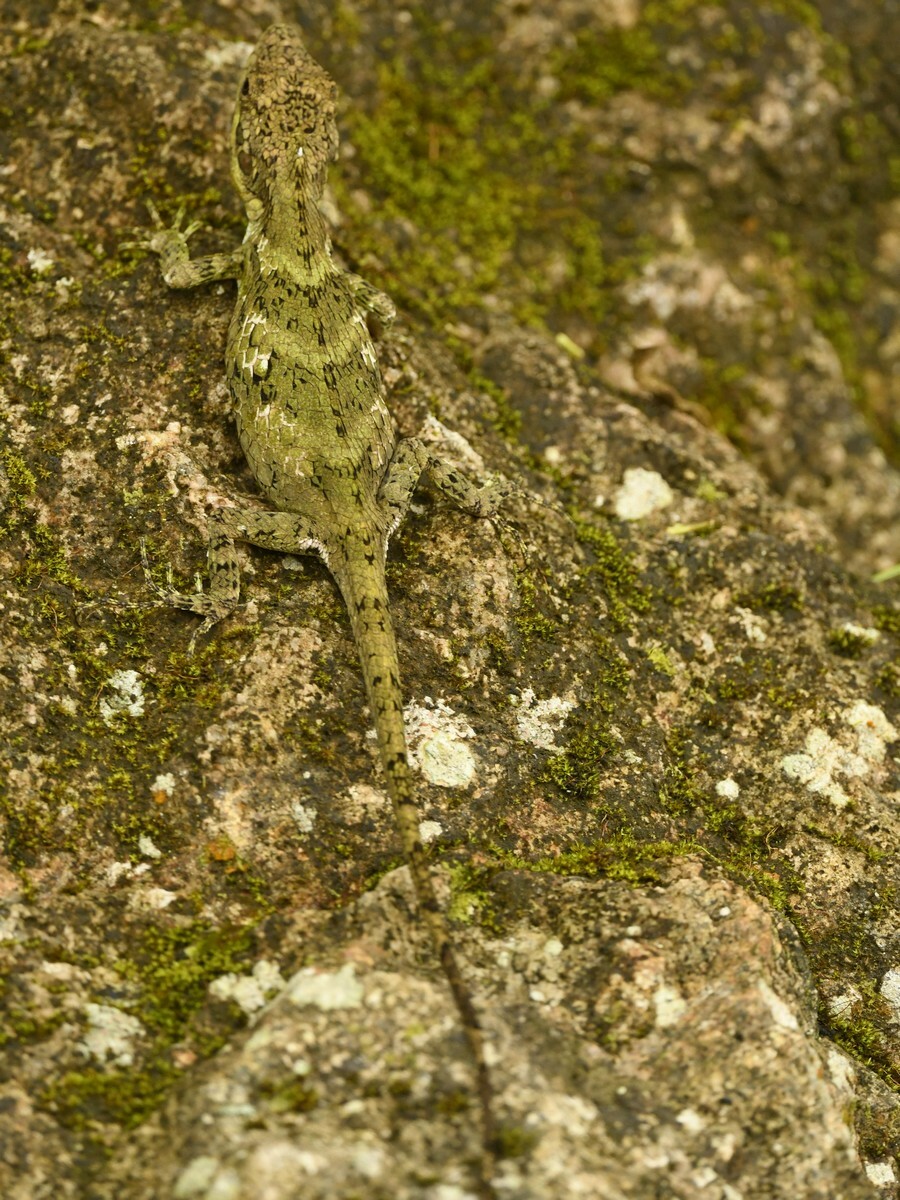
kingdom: Animalia
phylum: Chordata
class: Squamata
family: Agamidae
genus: Salea
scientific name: Salea anamallayana
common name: Anaimalai spiny lizard
